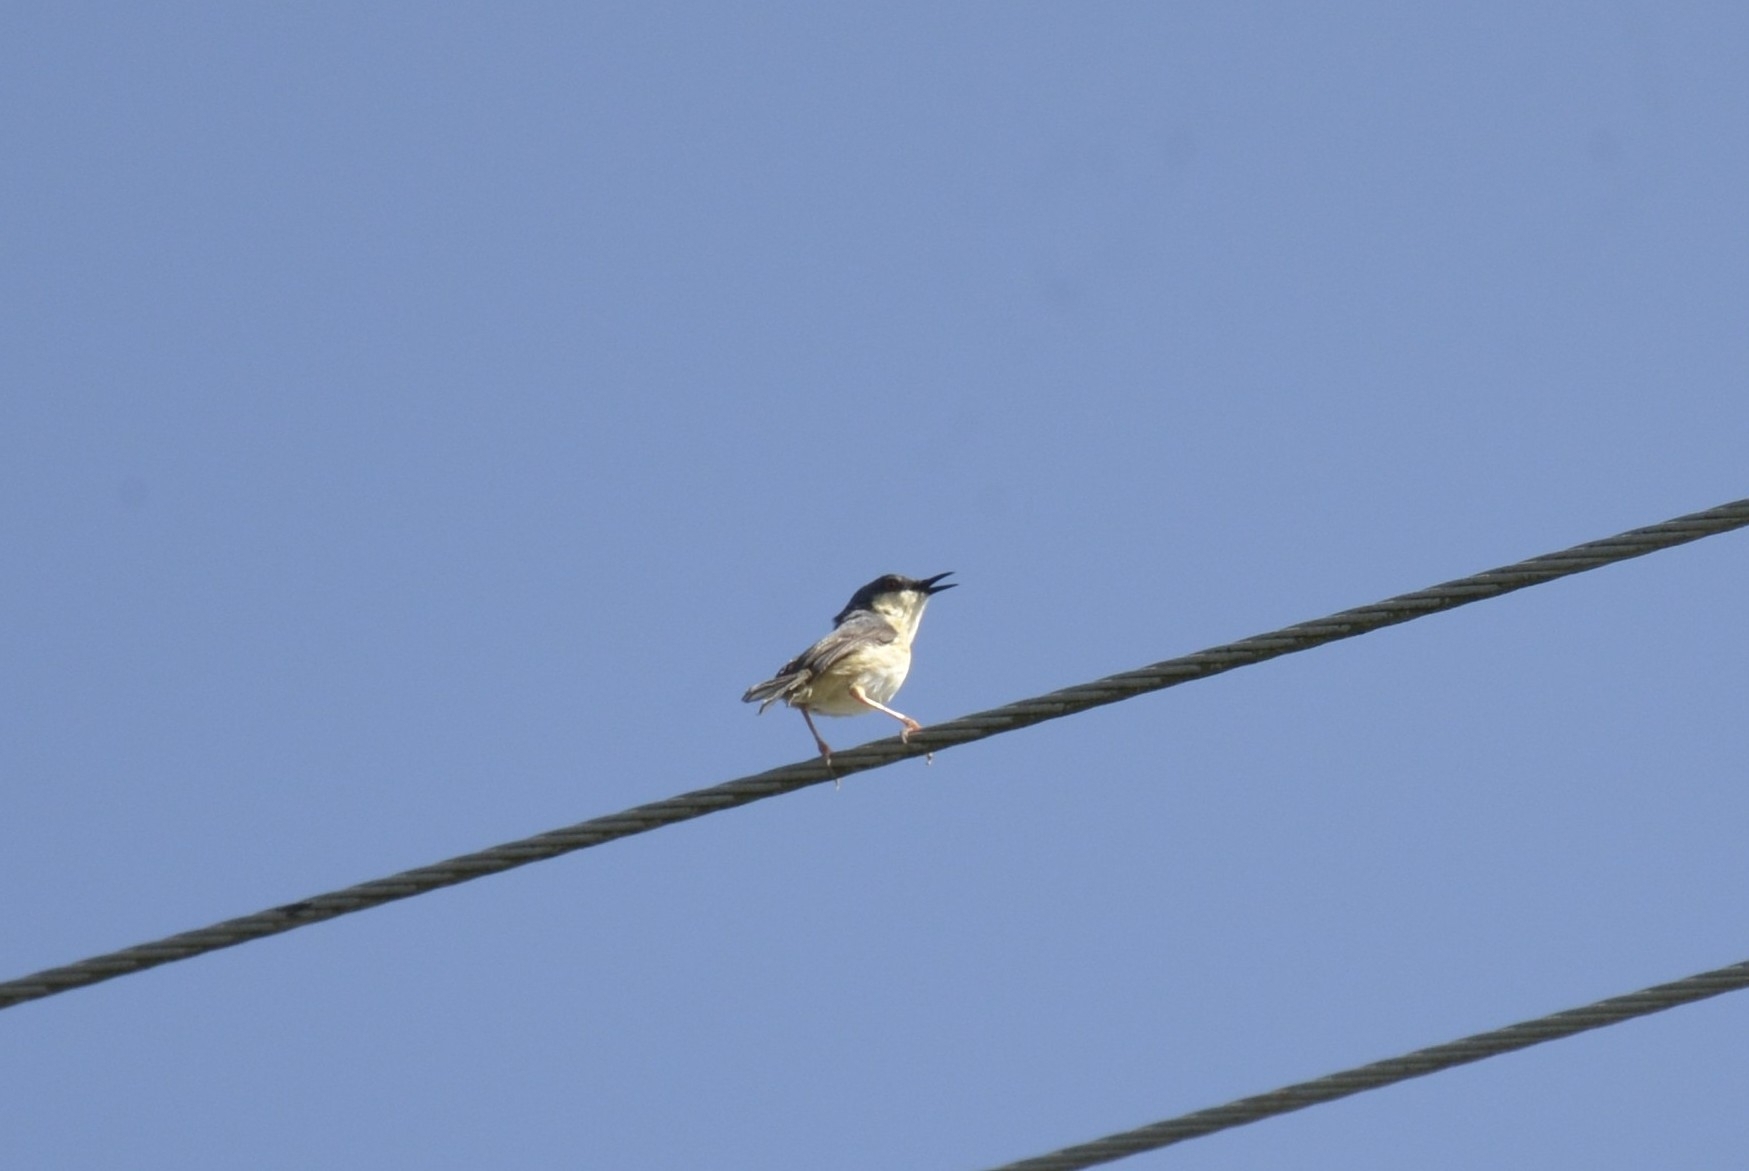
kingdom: Animalia
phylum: Chordata
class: Aves
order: Passeriformes
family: Cisticolidae
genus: Prinia
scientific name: Prinia socialis
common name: Ashy prinia
